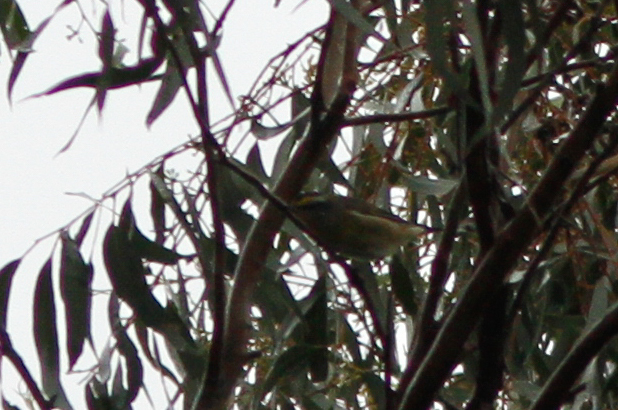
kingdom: Animalia
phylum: Chordata
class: Aves
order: Passeriformes
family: Pardalotidae
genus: Pardalotus
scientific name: Pardalotus striatus
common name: Striated pardalote
